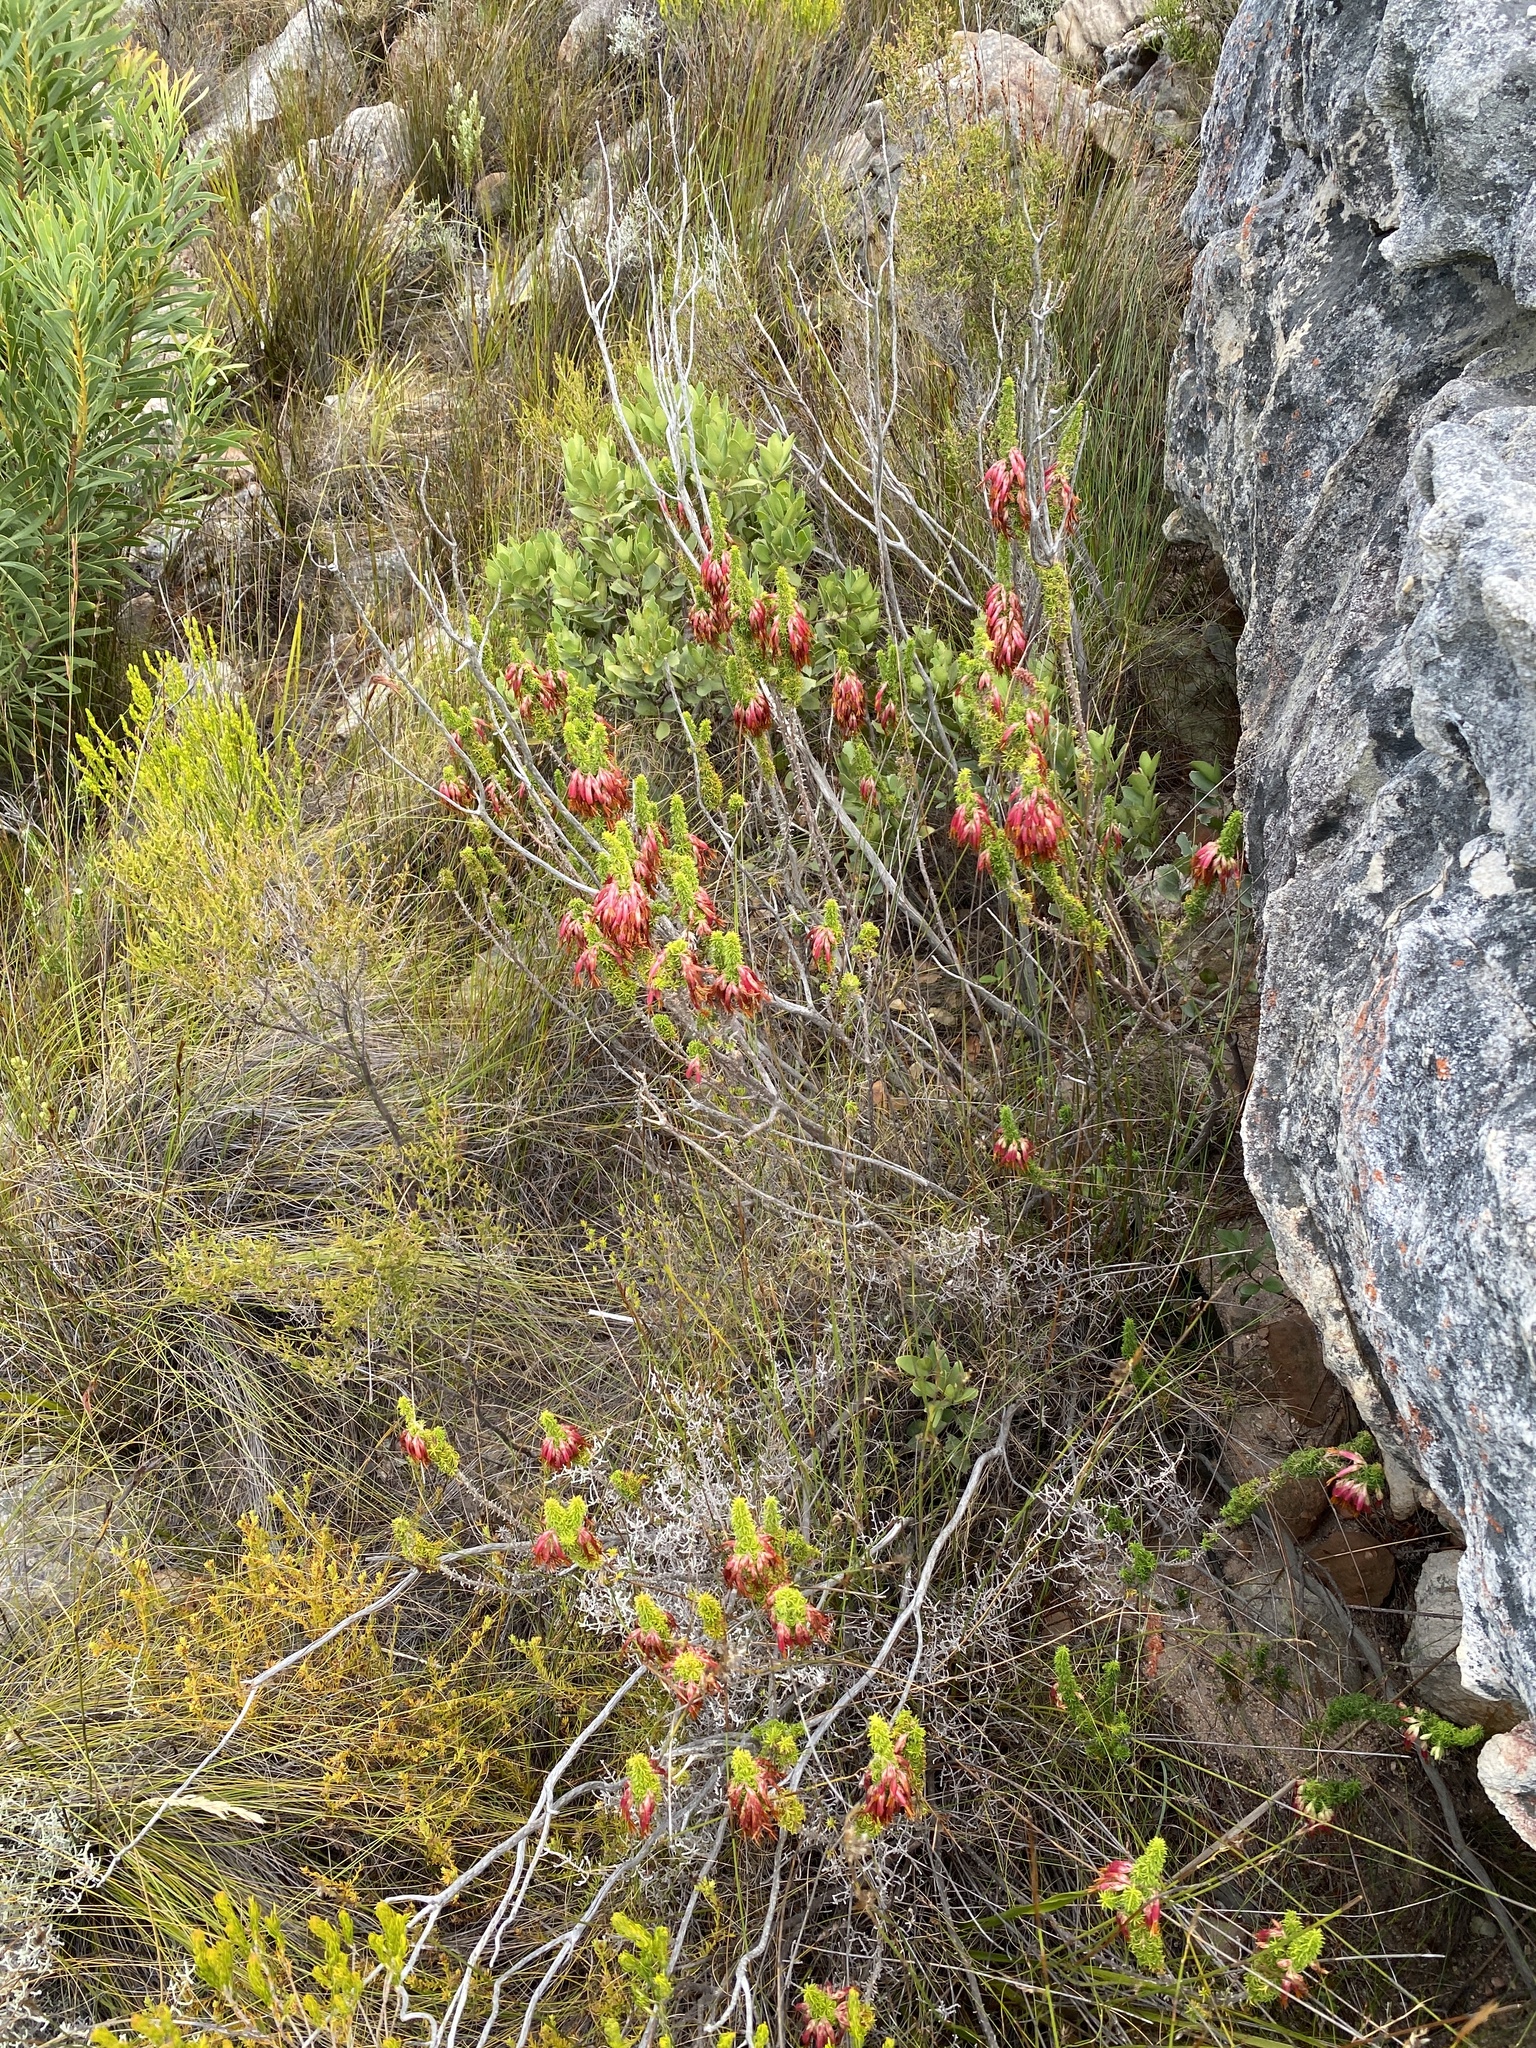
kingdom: Plantae
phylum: Tracheophyta
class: Magnoliopsida
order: Ericales
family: Ericaceae
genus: Erica
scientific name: Erica coccinea
